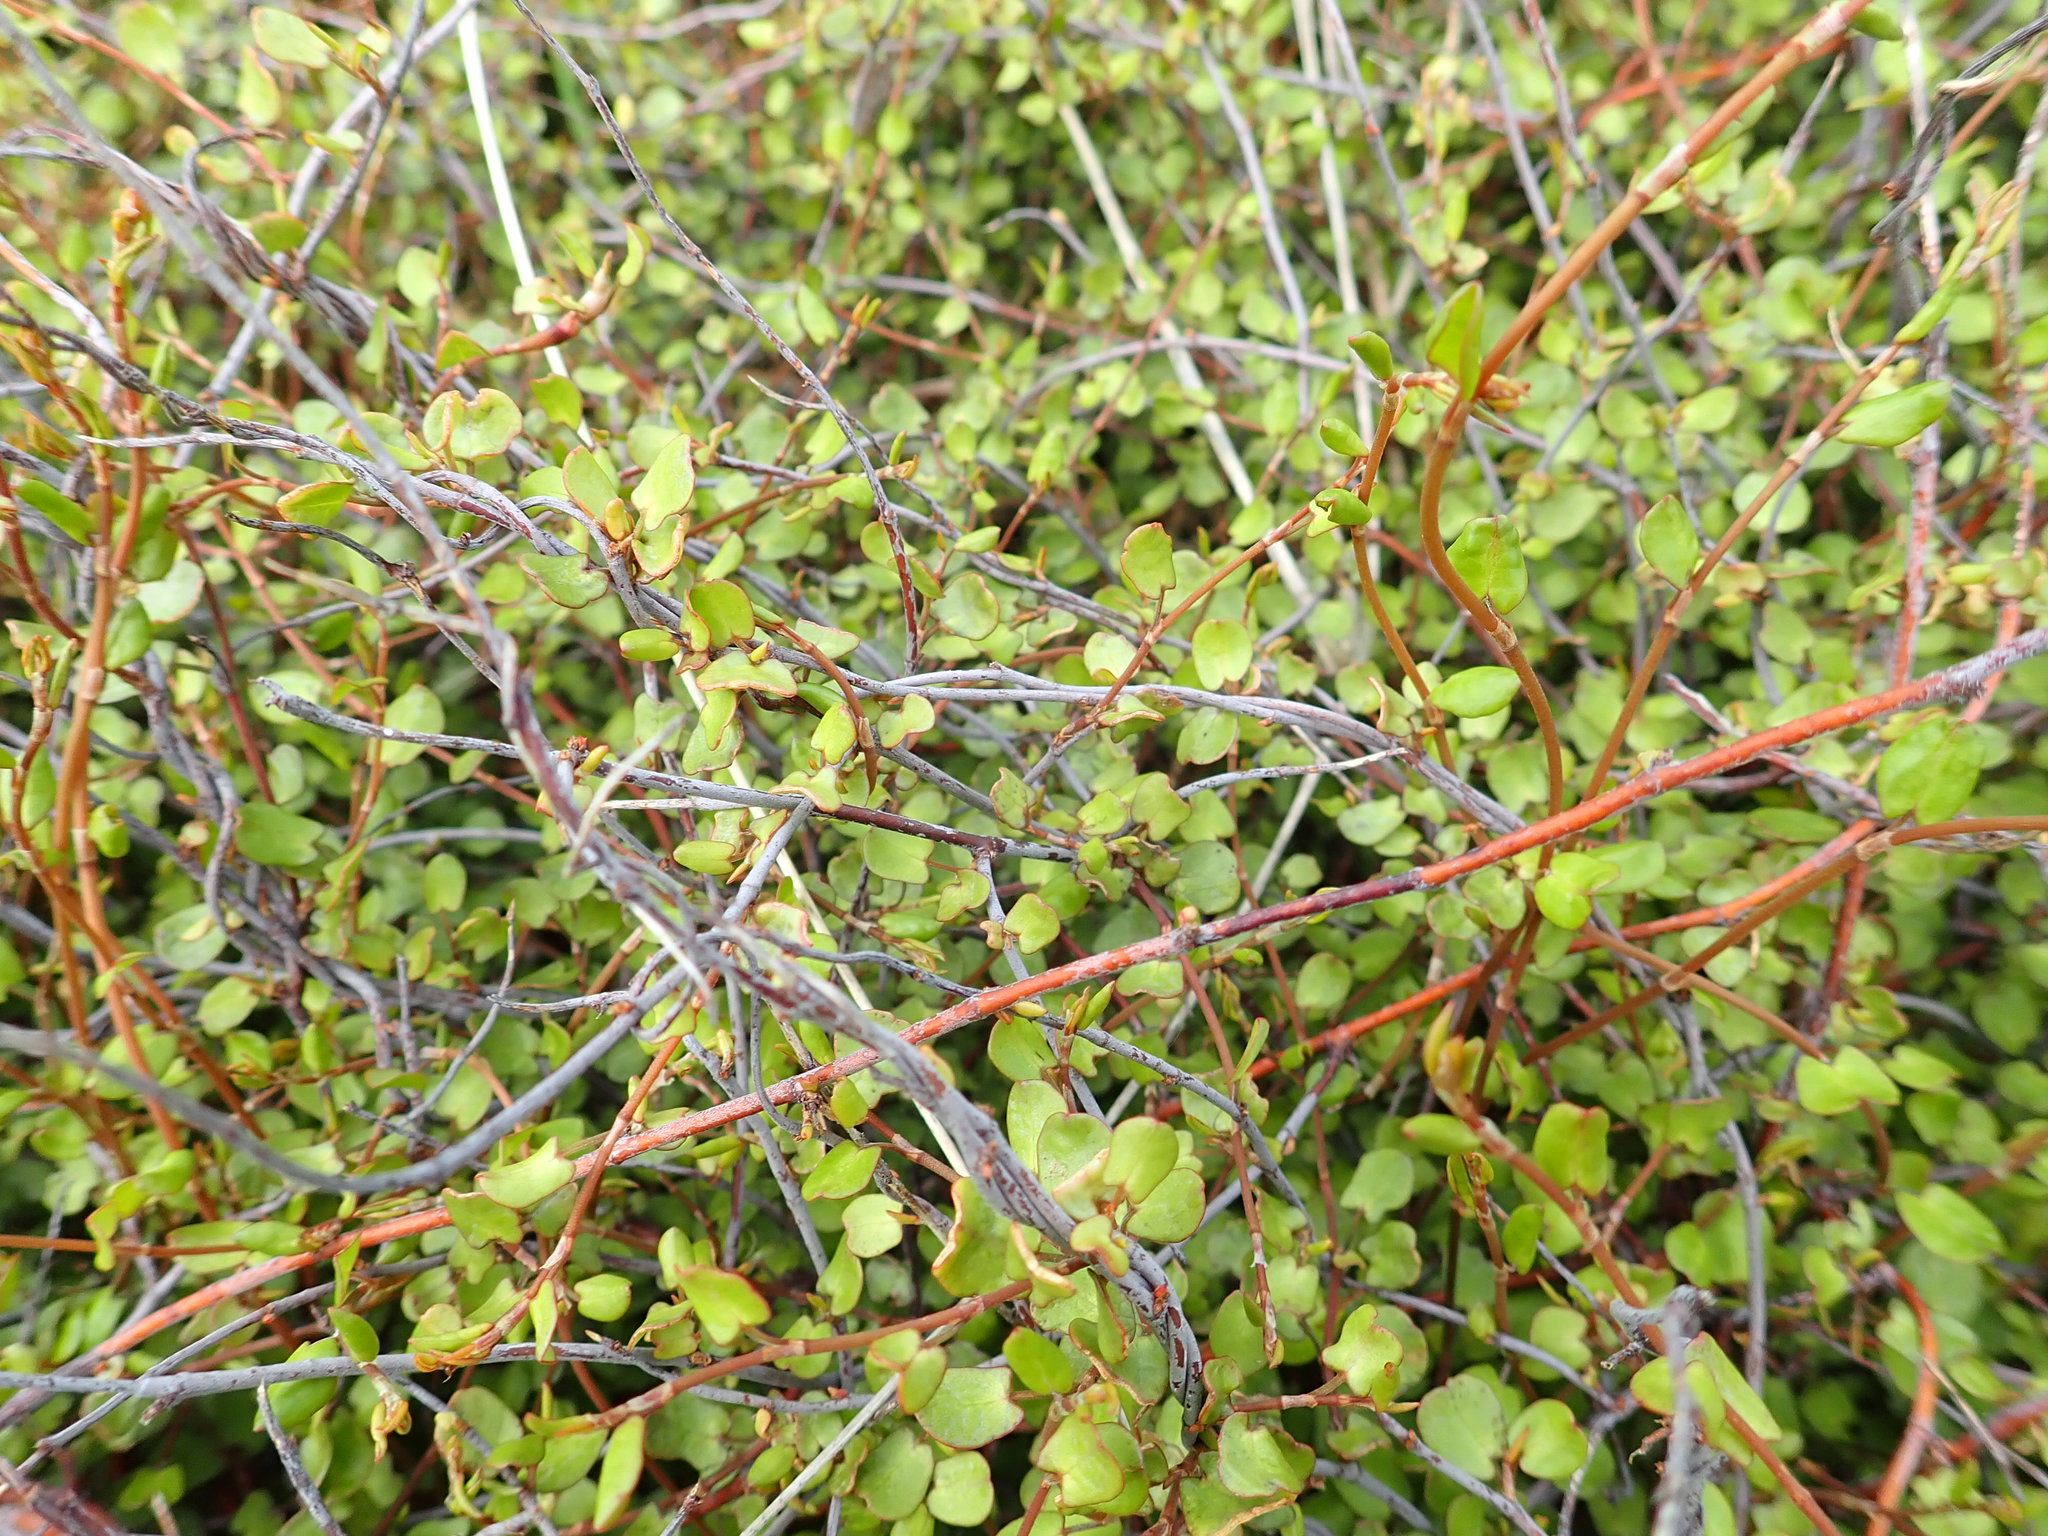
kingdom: Plantae
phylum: Tracheophyta
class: Magnoliopsida
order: Caryophyllales
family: Polygonaceae
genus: Muehlenbeckia
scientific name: Muehlenbeckia complexa
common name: Wireplant
